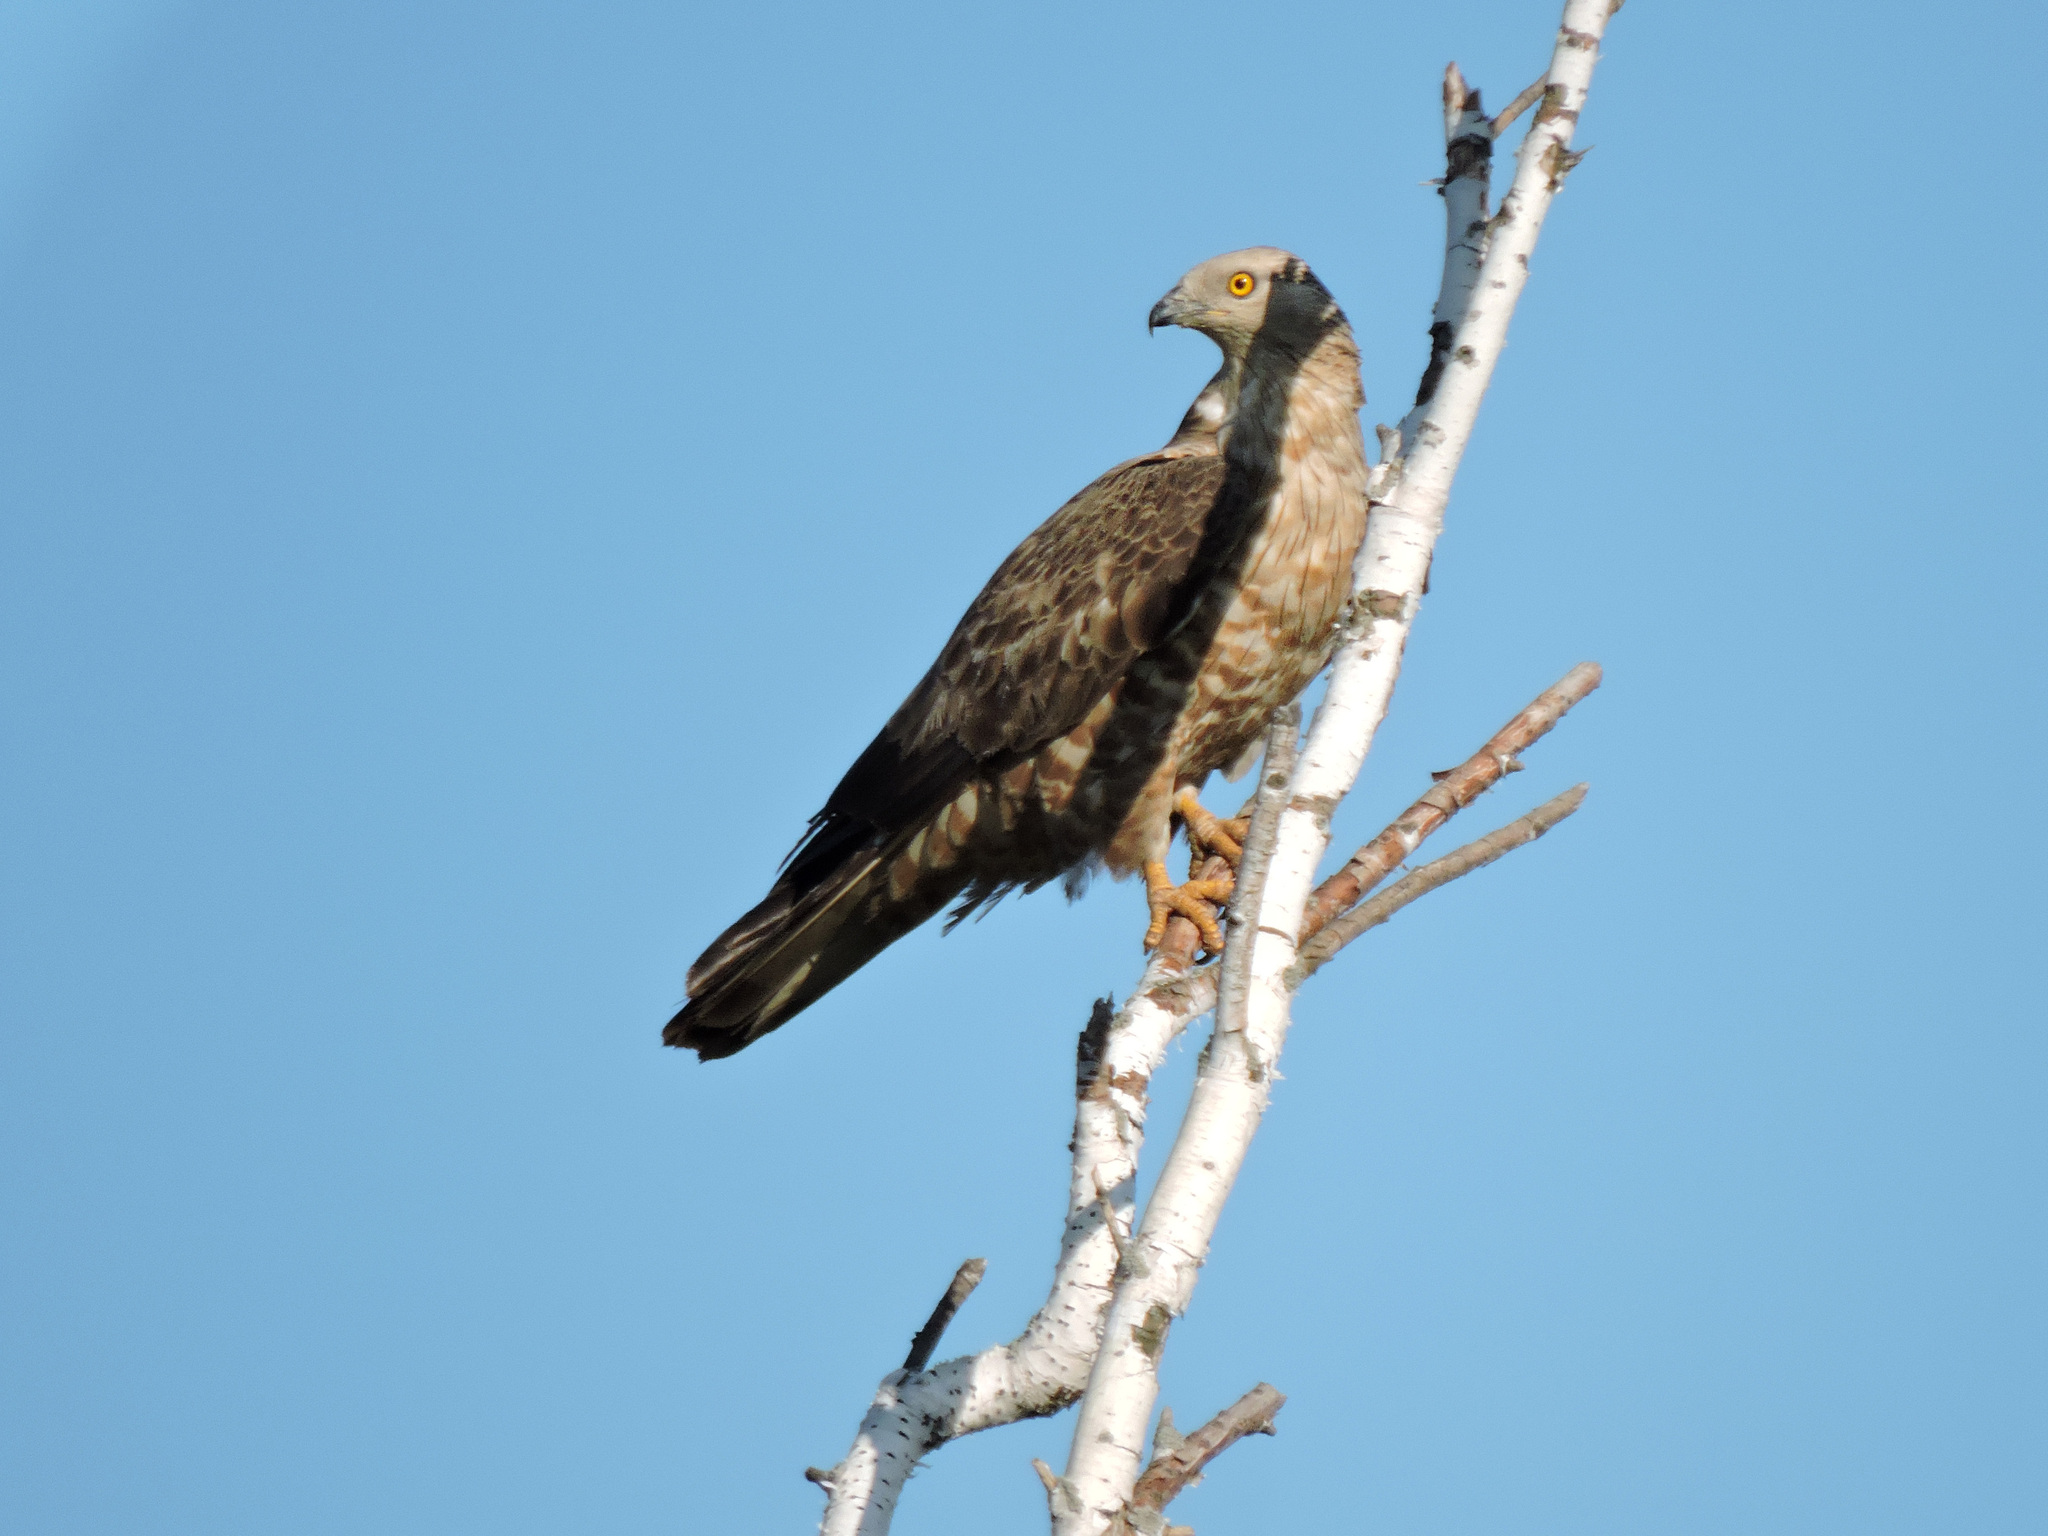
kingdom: Animalia
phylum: Chordata
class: Aves
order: Accipitriformes
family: Accipitridae
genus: Pernis
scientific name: Pernis apivorus
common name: European honey buzzard
